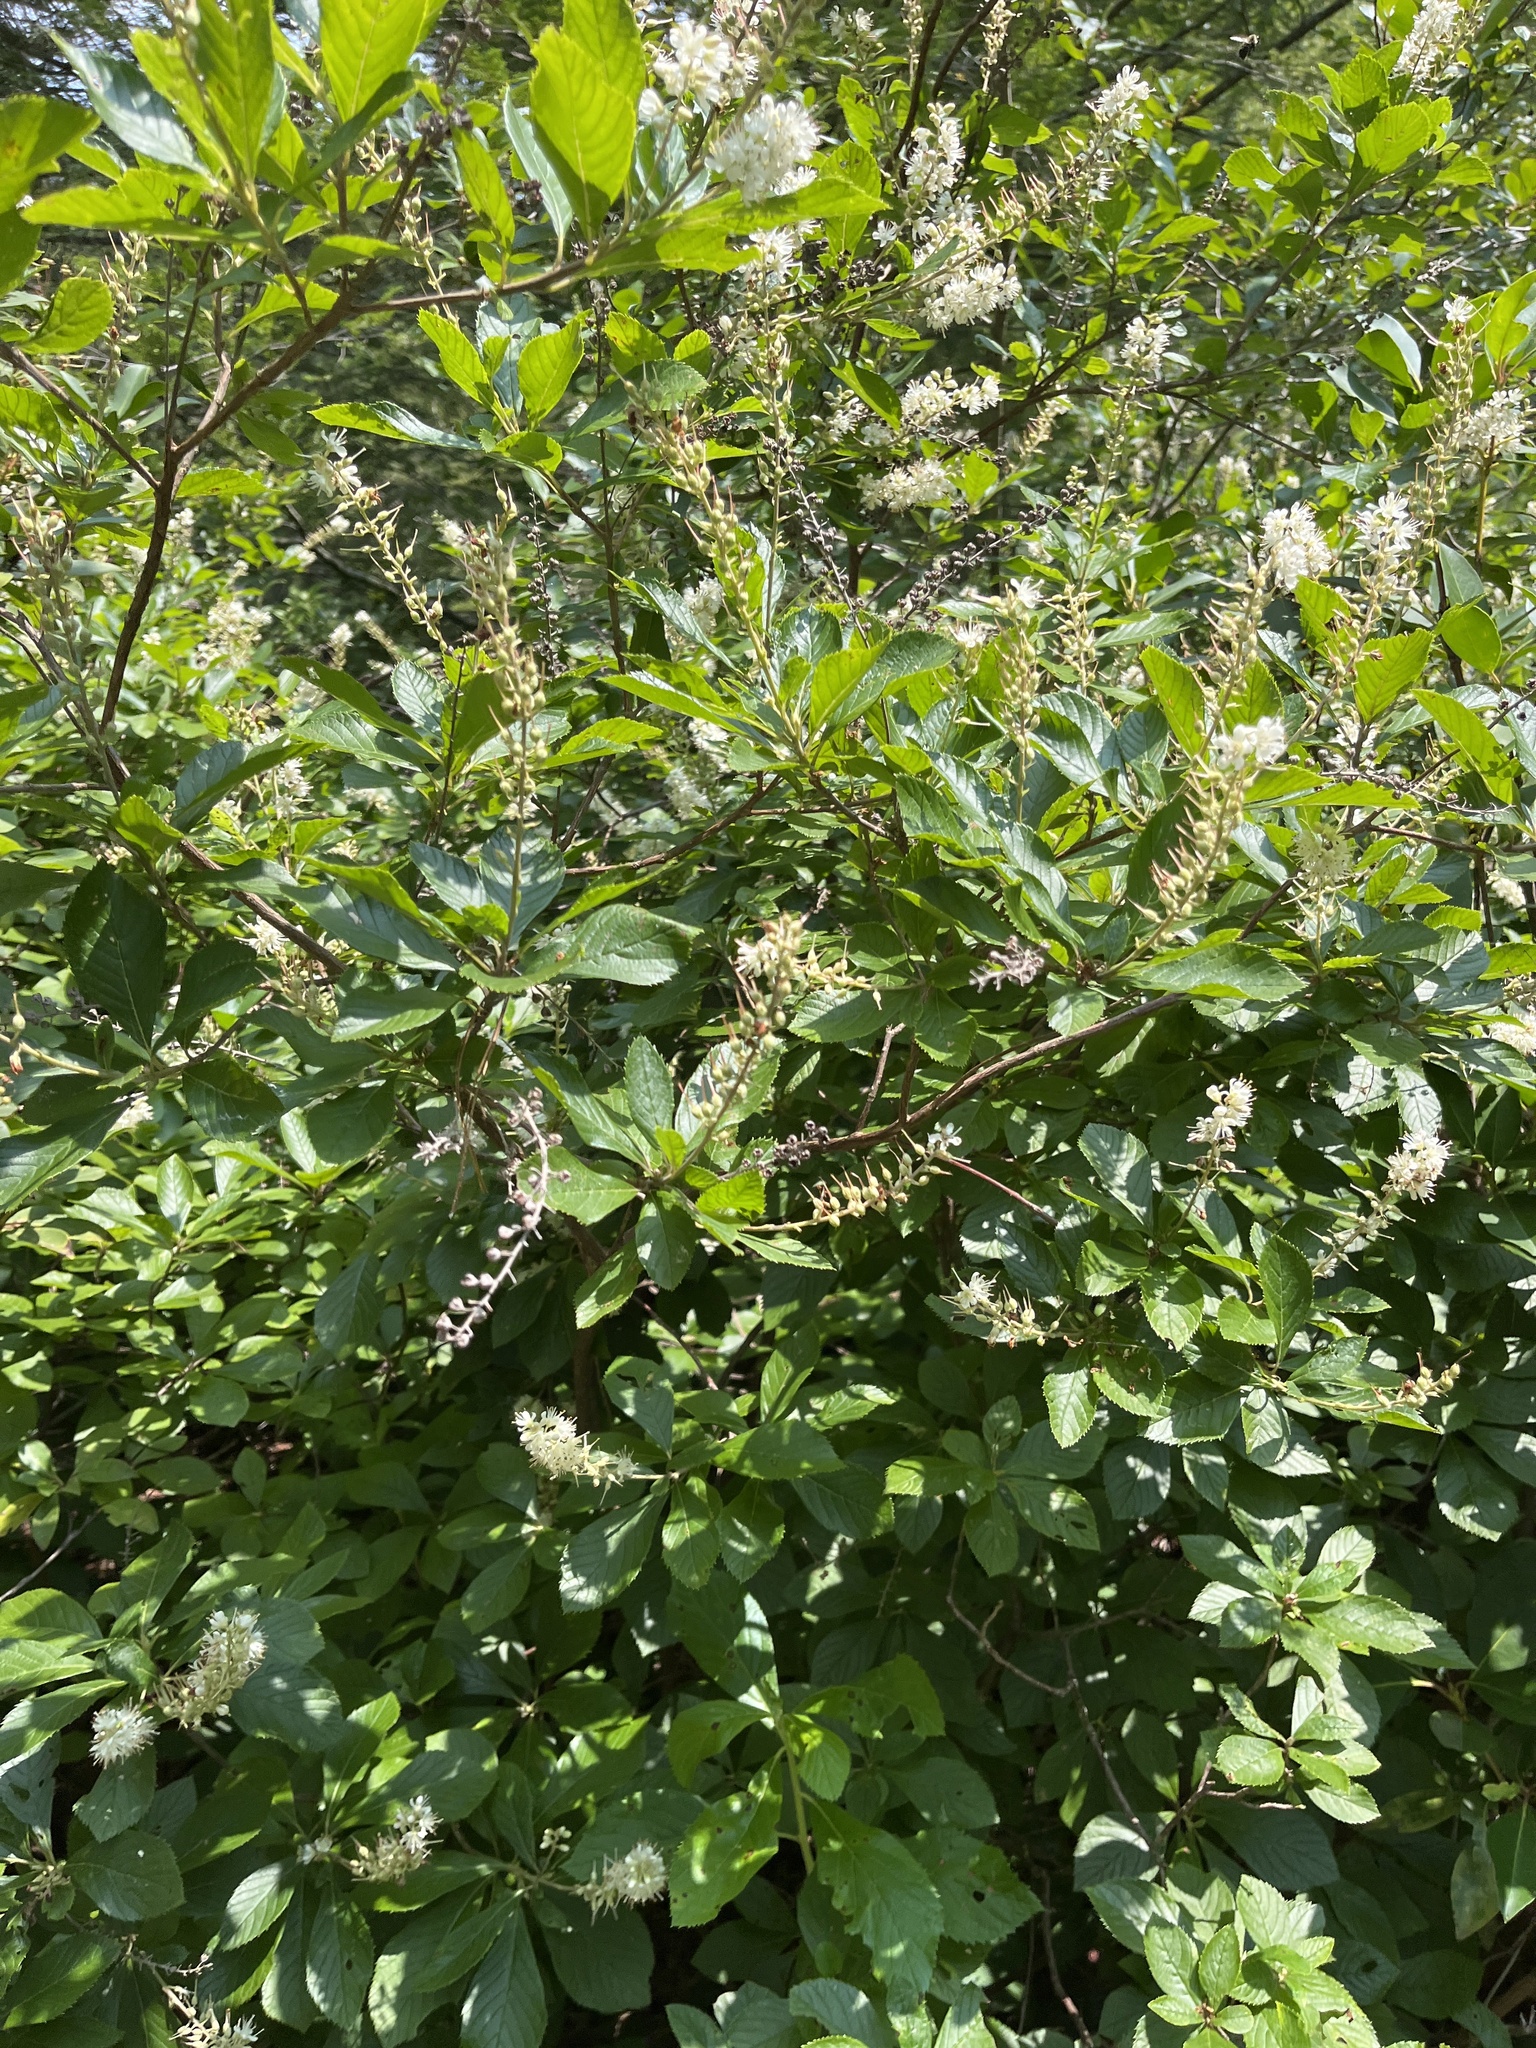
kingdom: Plantae
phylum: Tracheophyta
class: Magnoliopsida
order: Ericales
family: Clethraceae
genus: Clethra
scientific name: Clethra alnifolia
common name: Sweet pepperbush
